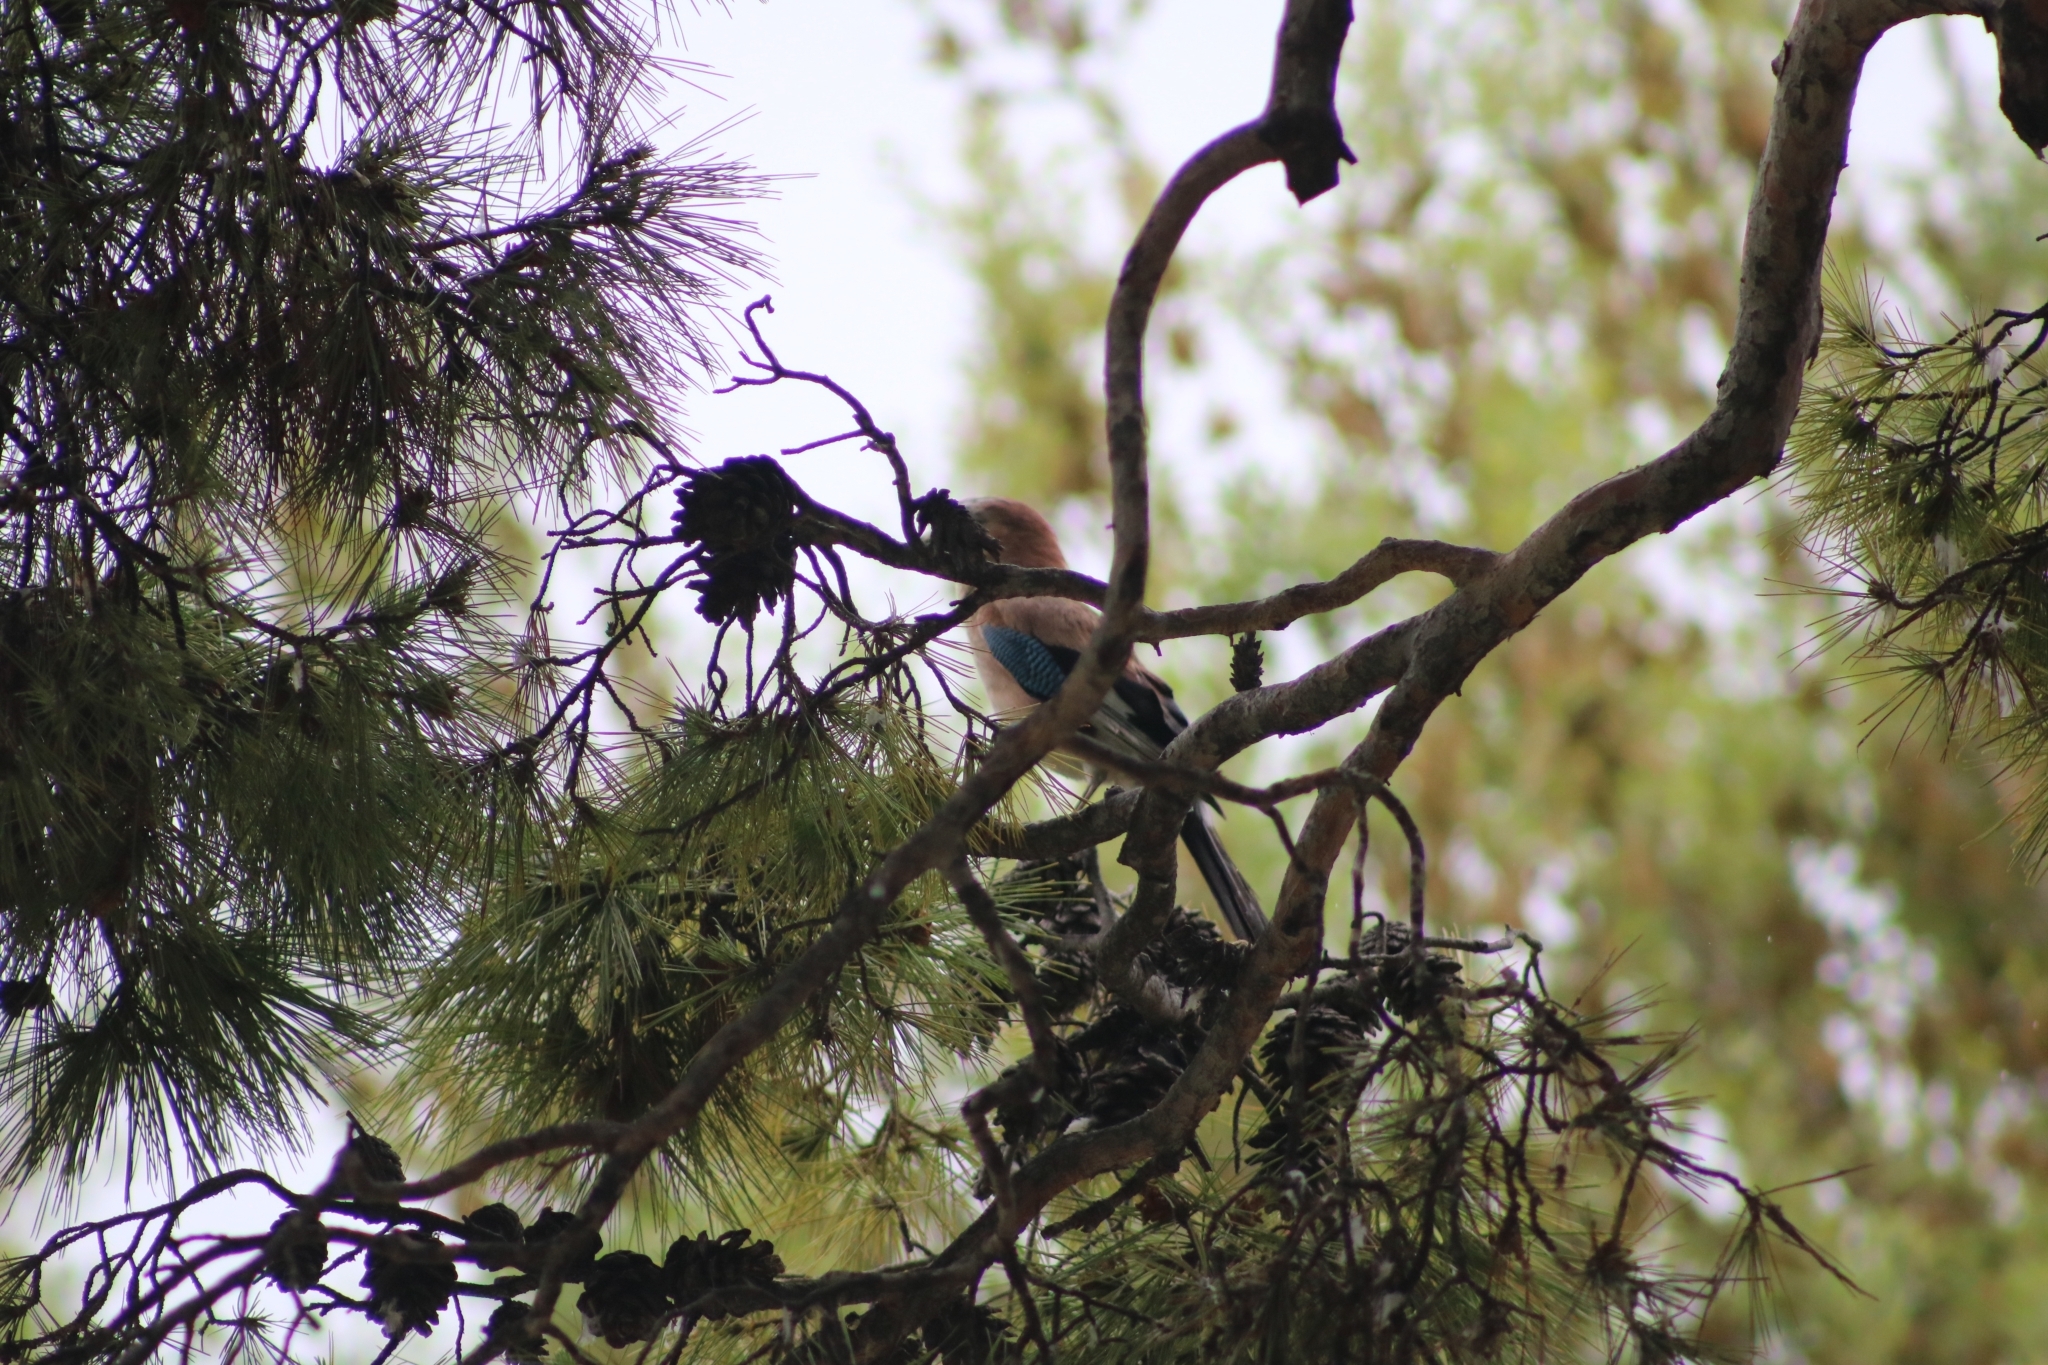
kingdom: Animalia
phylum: Chordata
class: Aves
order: Passeriformes
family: Corvidae
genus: Garrulus
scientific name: Garrulus glandarius
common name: Eurasian jay
